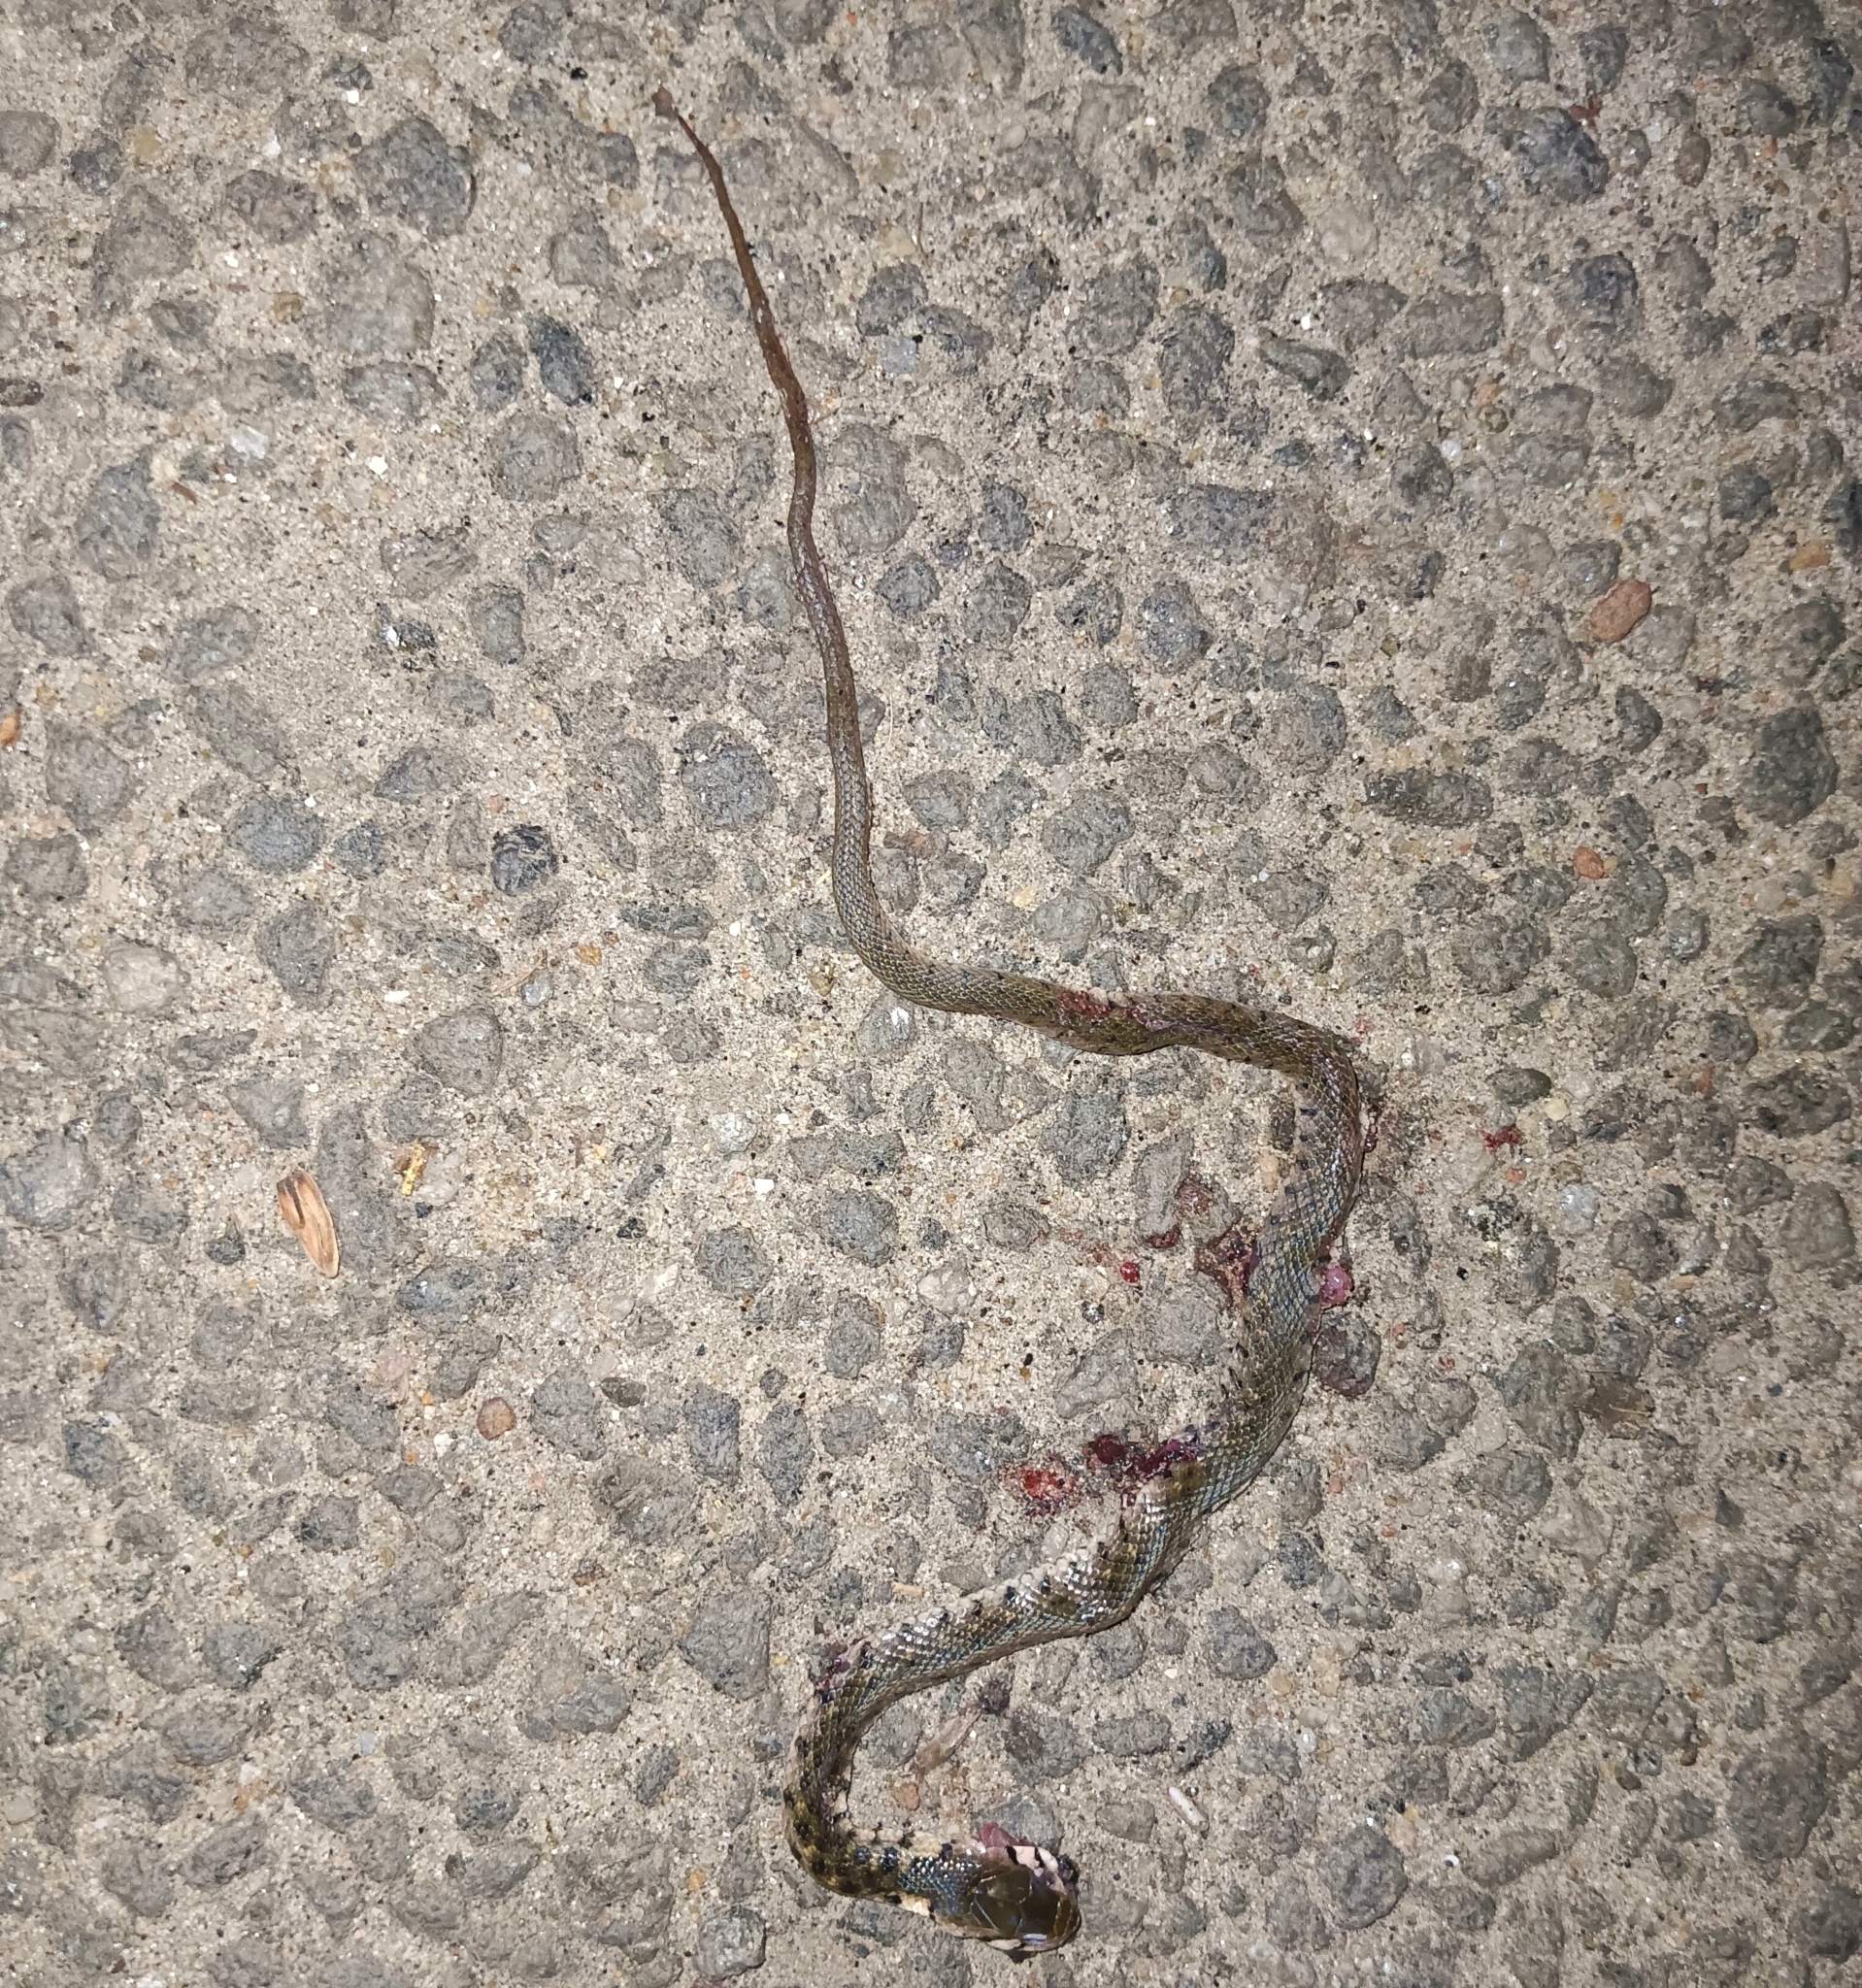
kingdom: Animalia
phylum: Chordata
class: Squamata
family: Colubridae
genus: Fowlea
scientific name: Fowlea piscator
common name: Asiatic water snake
